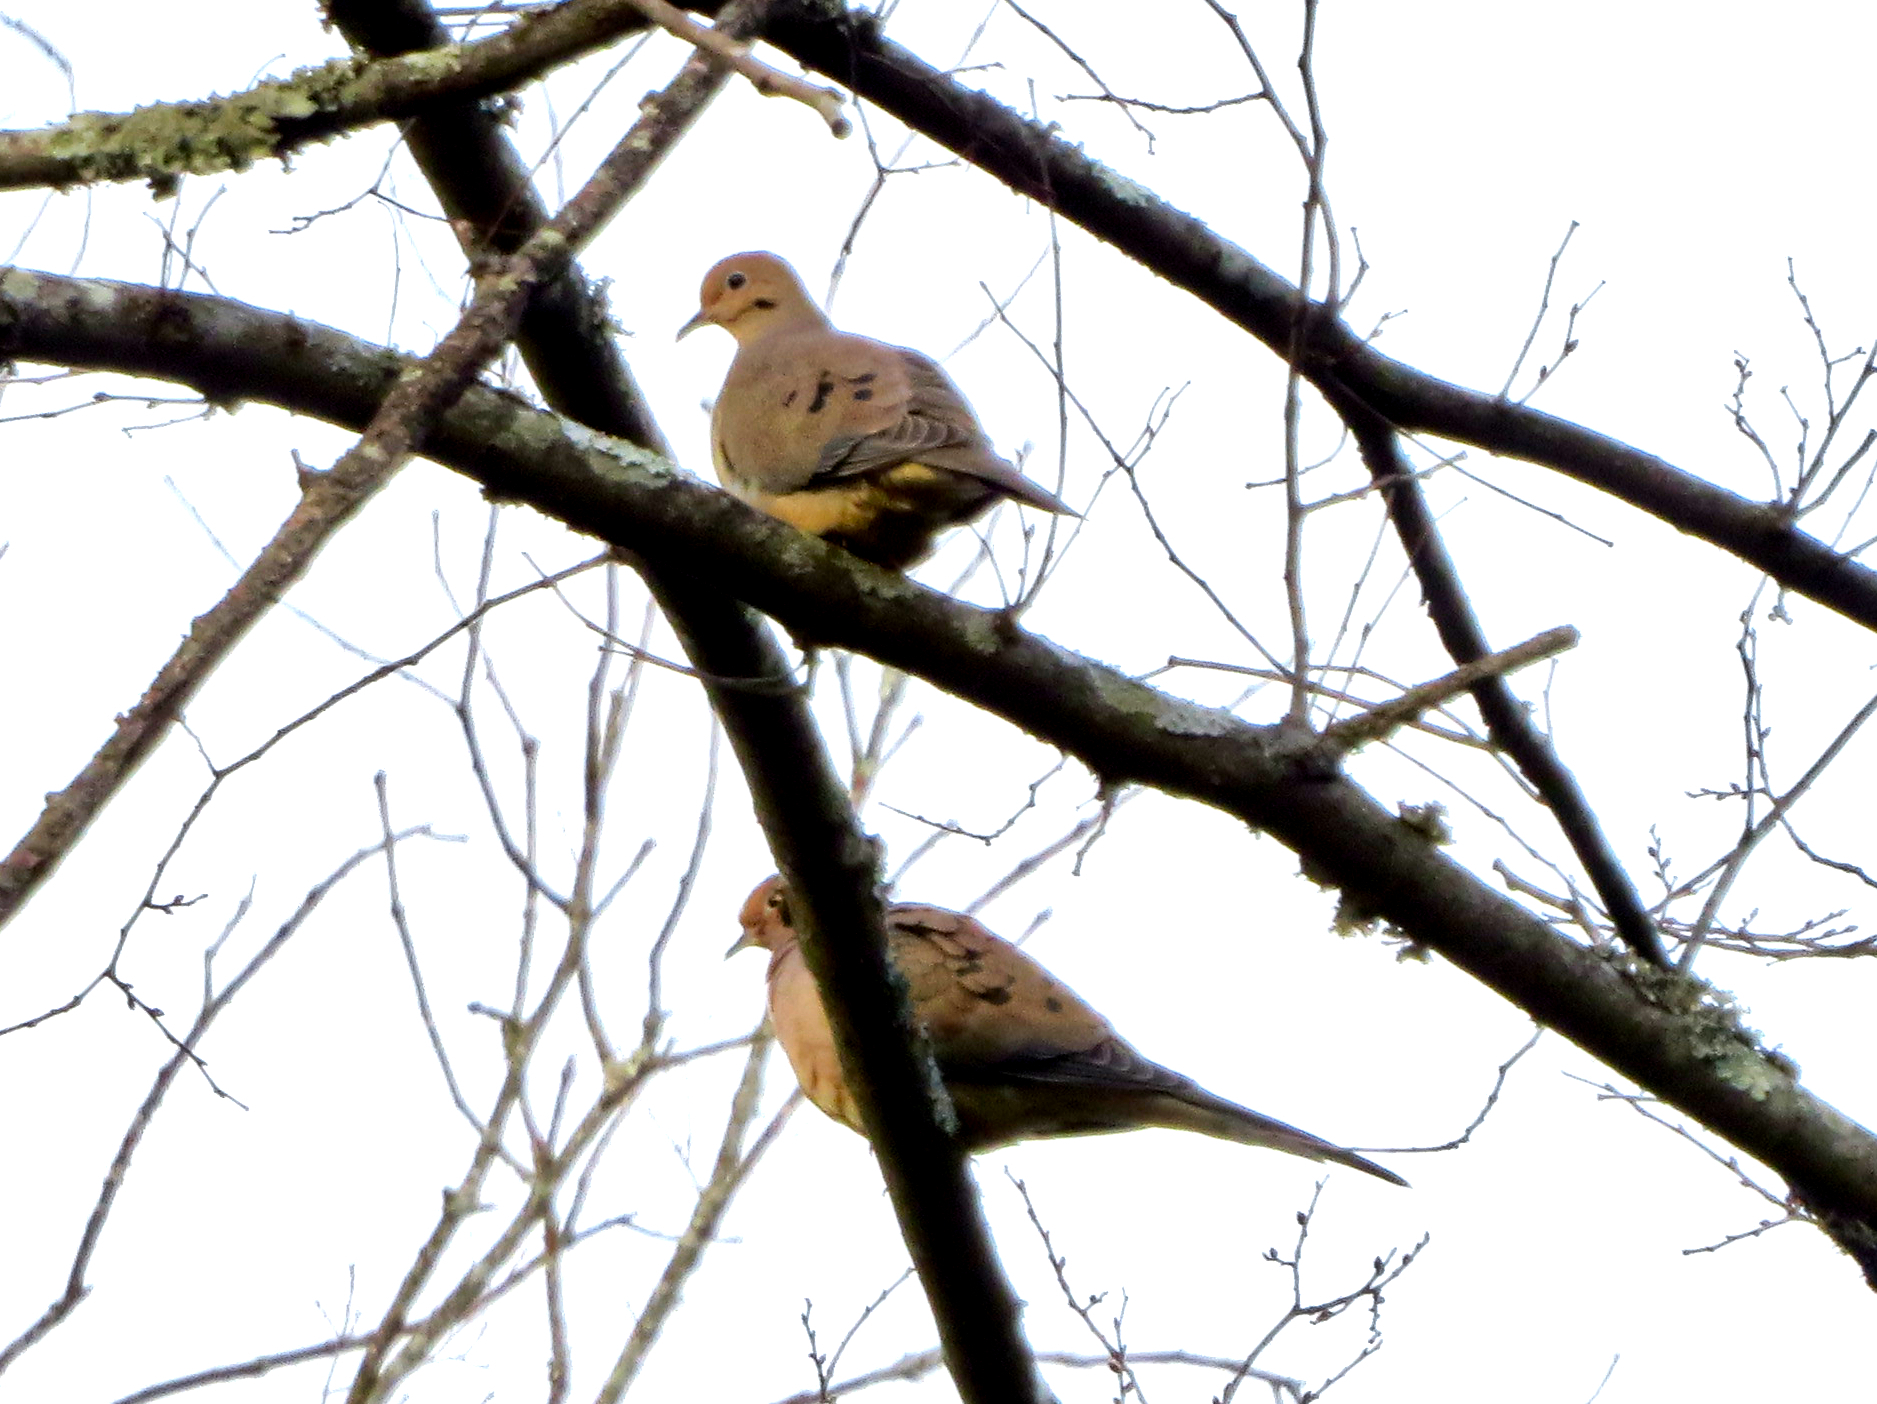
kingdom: Animalia
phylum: Chordata
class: Aves
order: Columbiformes
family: Columbidae
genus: Zenaida
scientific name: Zenaida macroura
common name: Mourning dove
